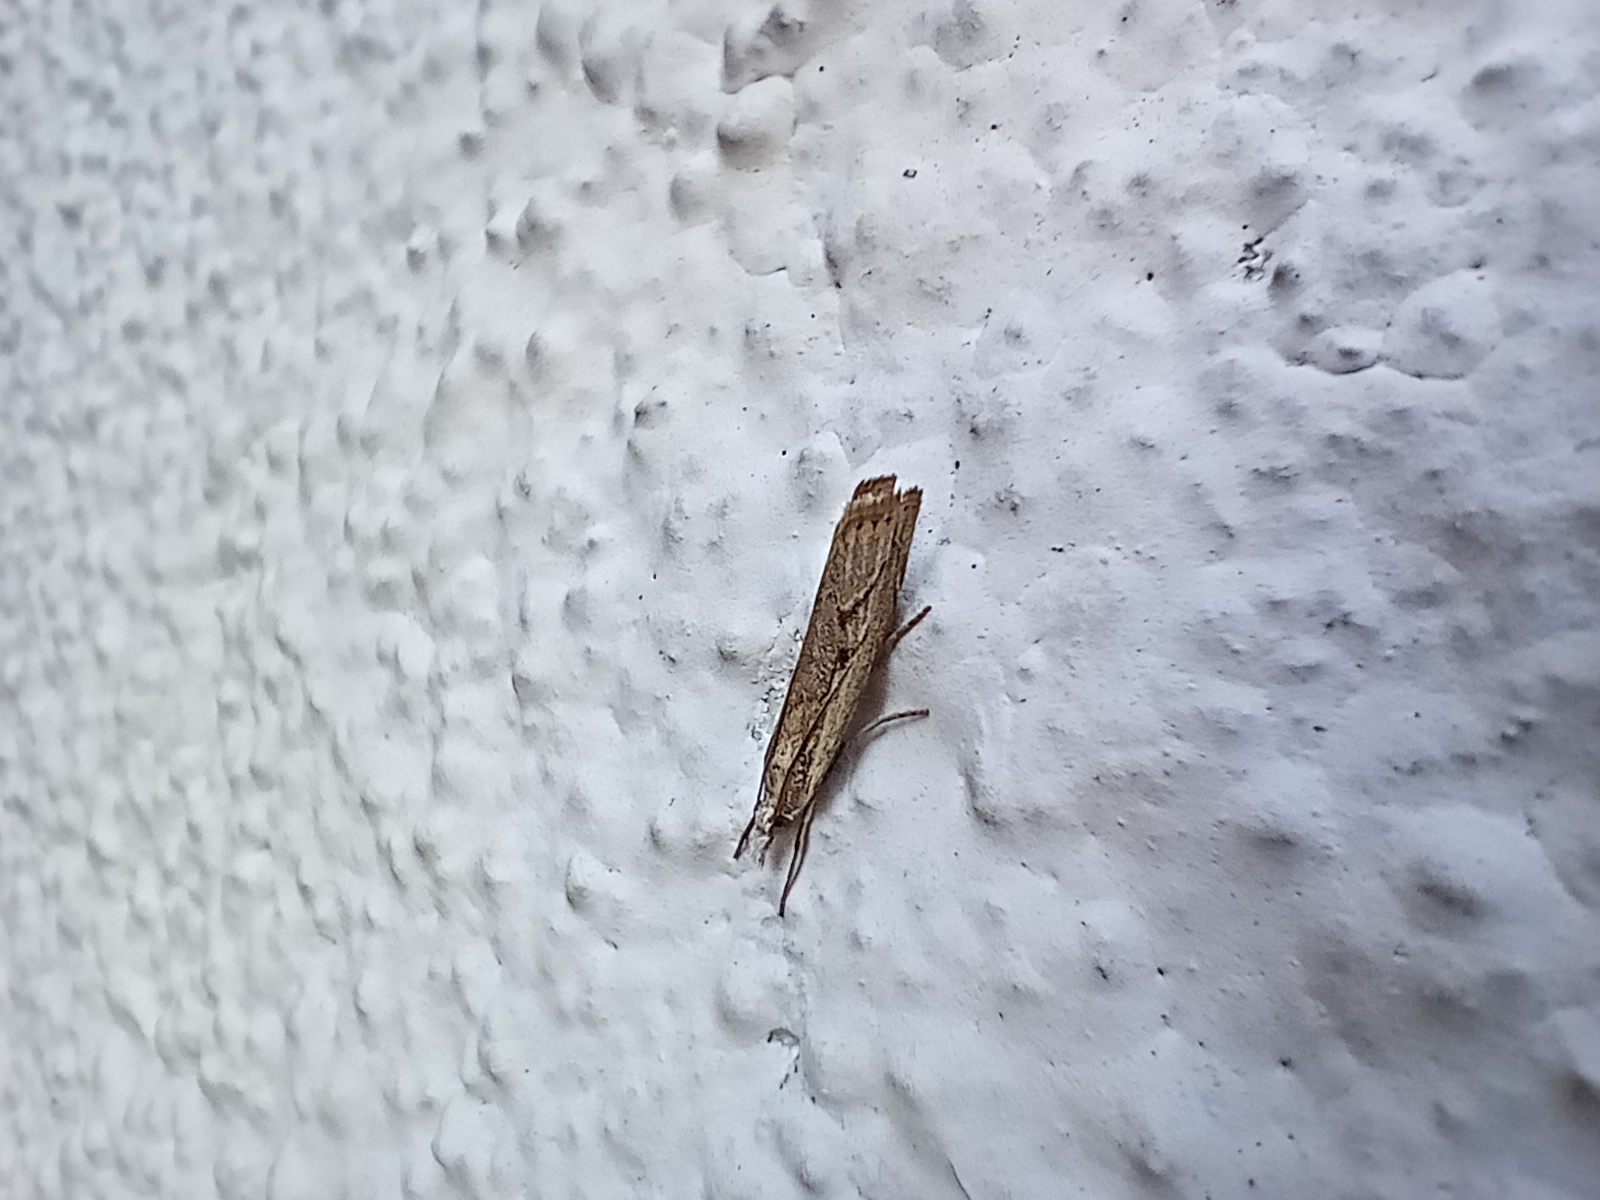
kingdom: Animalia
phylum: Arthropoda
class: Insecta
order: Lepidoptera
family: Crambidae
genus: Agriphila
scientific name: Agriphila geniculea
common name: Elbow-stripe grass-veneer
